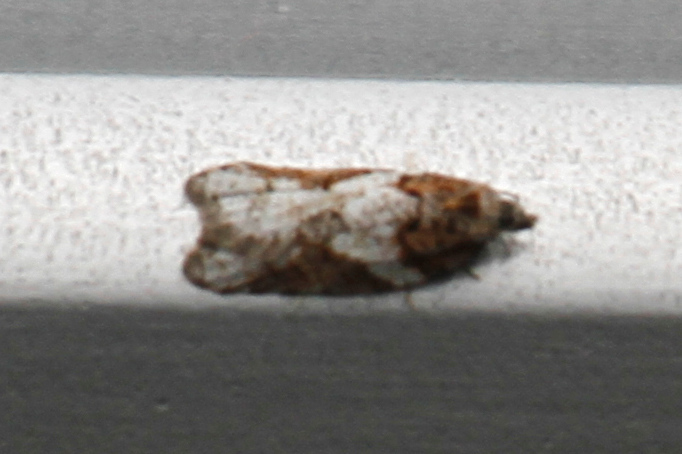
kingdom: Animalia
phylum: Arthropoda
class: Insecta
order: Lepidoptera
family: Tortricidae
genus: Acleris
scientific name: Acleris gloveranus
